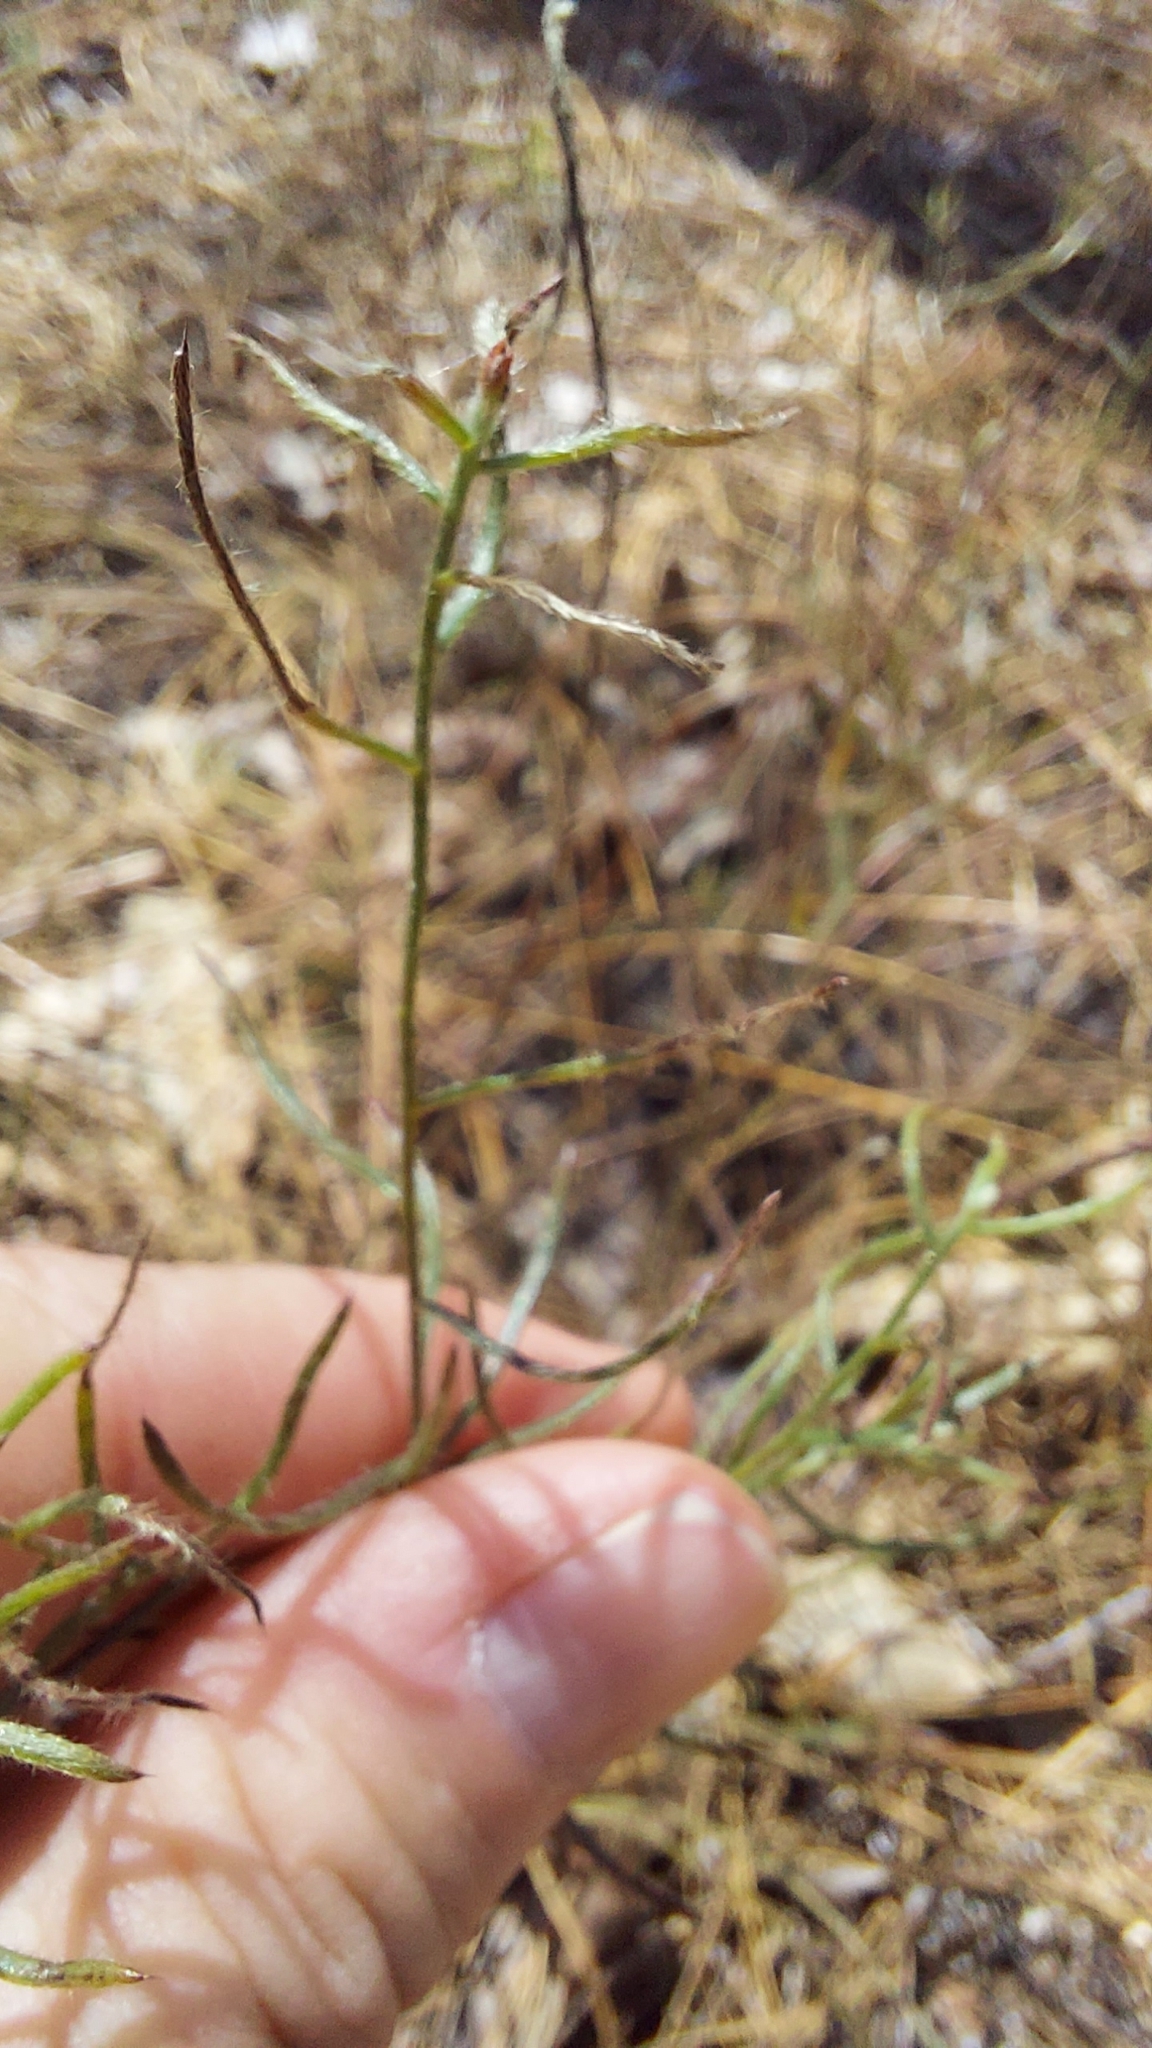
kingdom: Plantae
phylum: Tracheophyta
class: Magnoliopsida
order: Zygophyllales
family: Krameriaceae
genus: Krameria
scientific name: Krameria lanceolata
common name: Ratany
